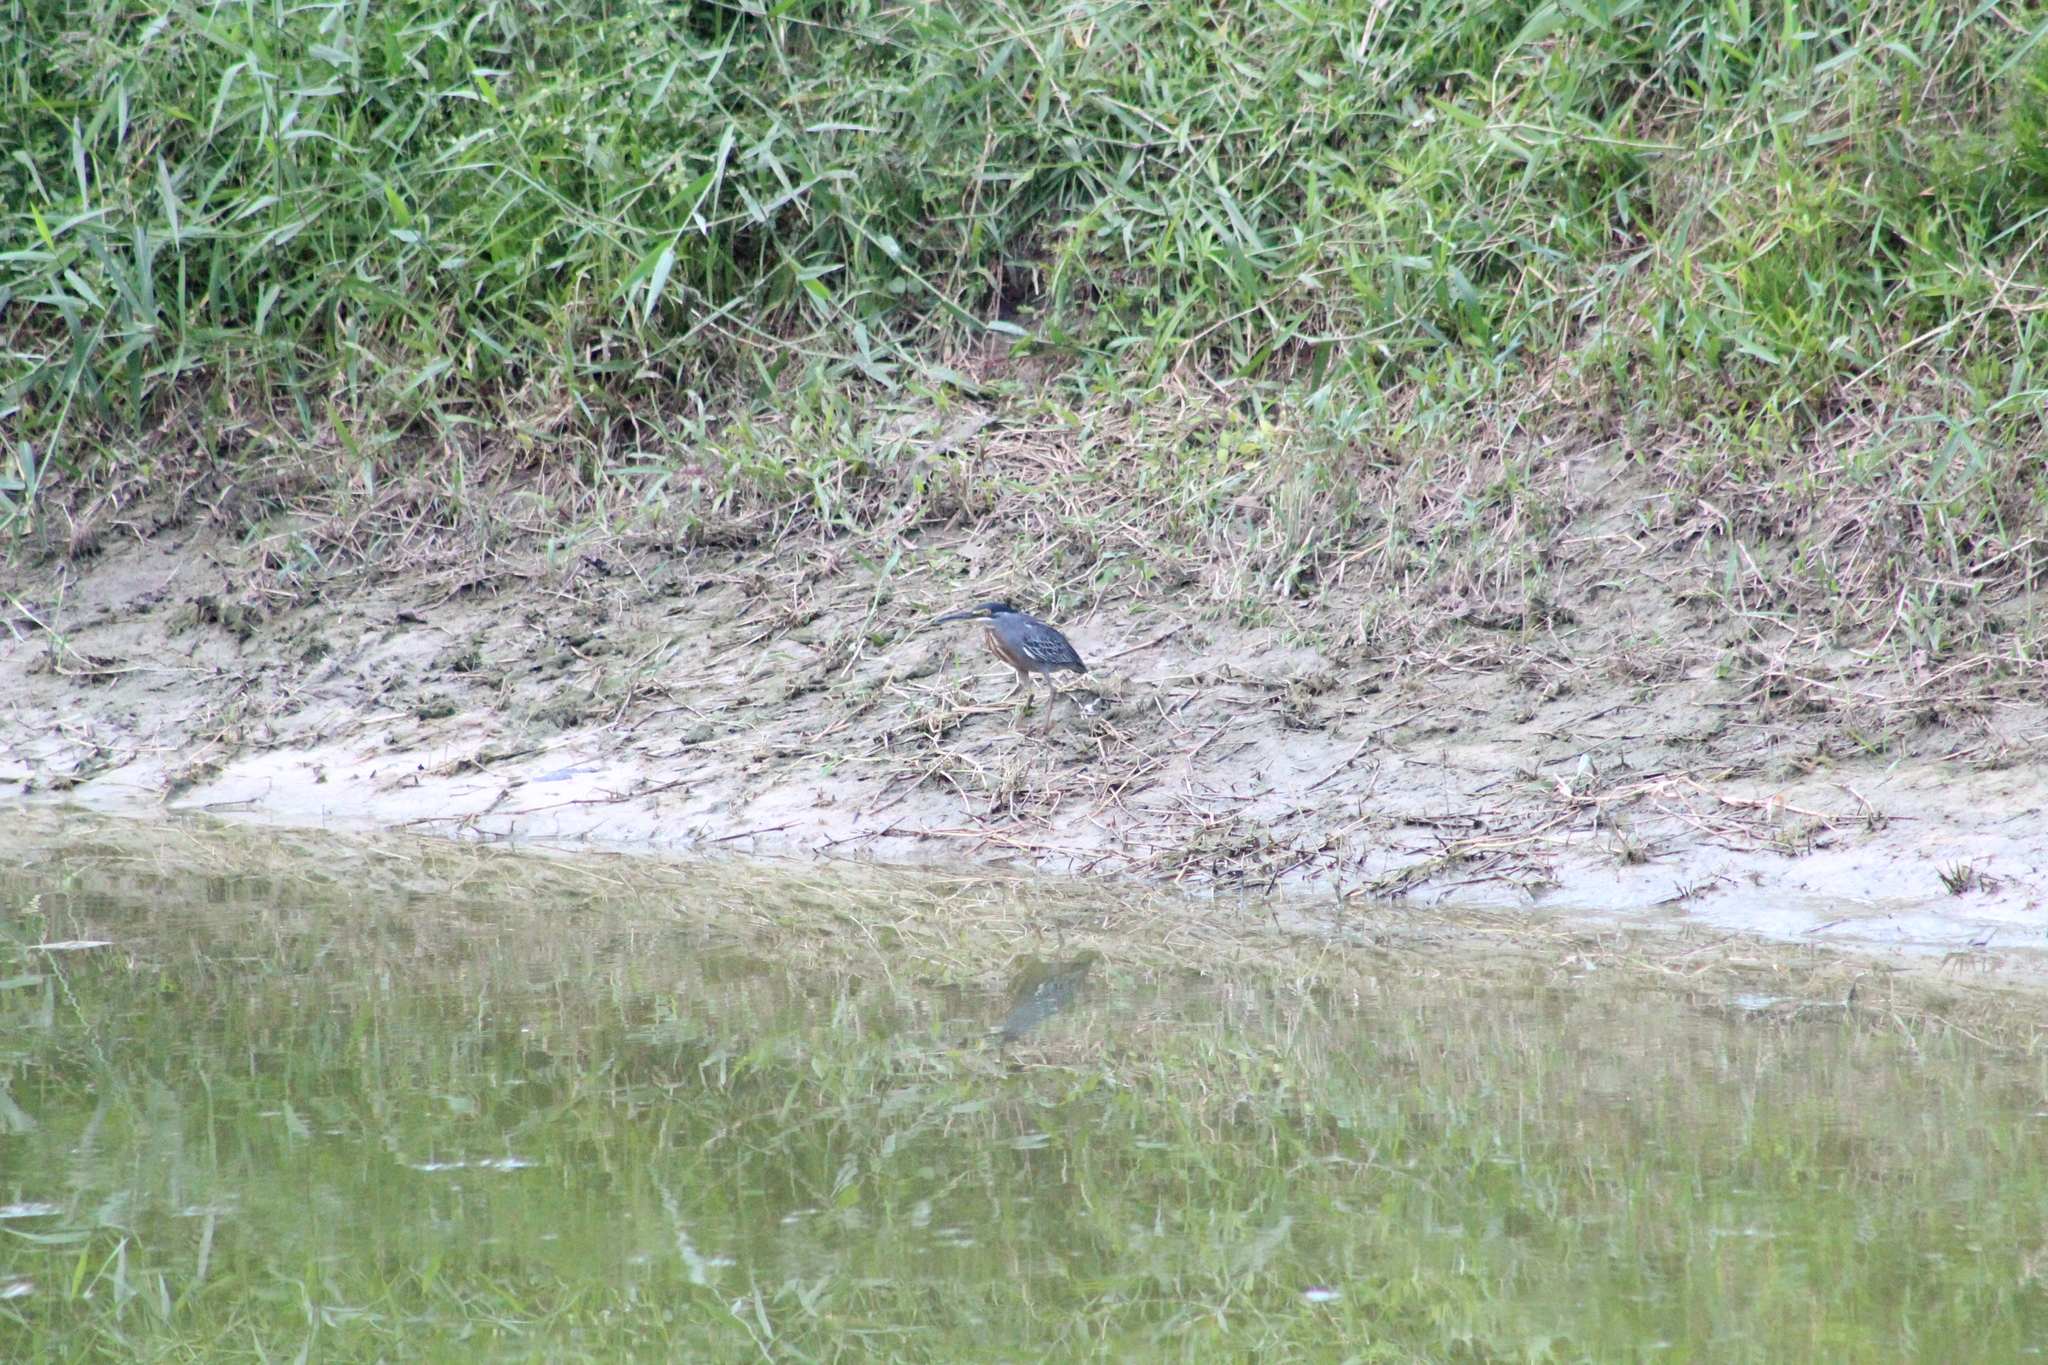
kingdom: Animalia
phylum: Chordata
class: Aves
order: Pelecaniformes
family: Ardeidae
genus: Butorides
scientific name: Butorides striata
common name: Striated heron
